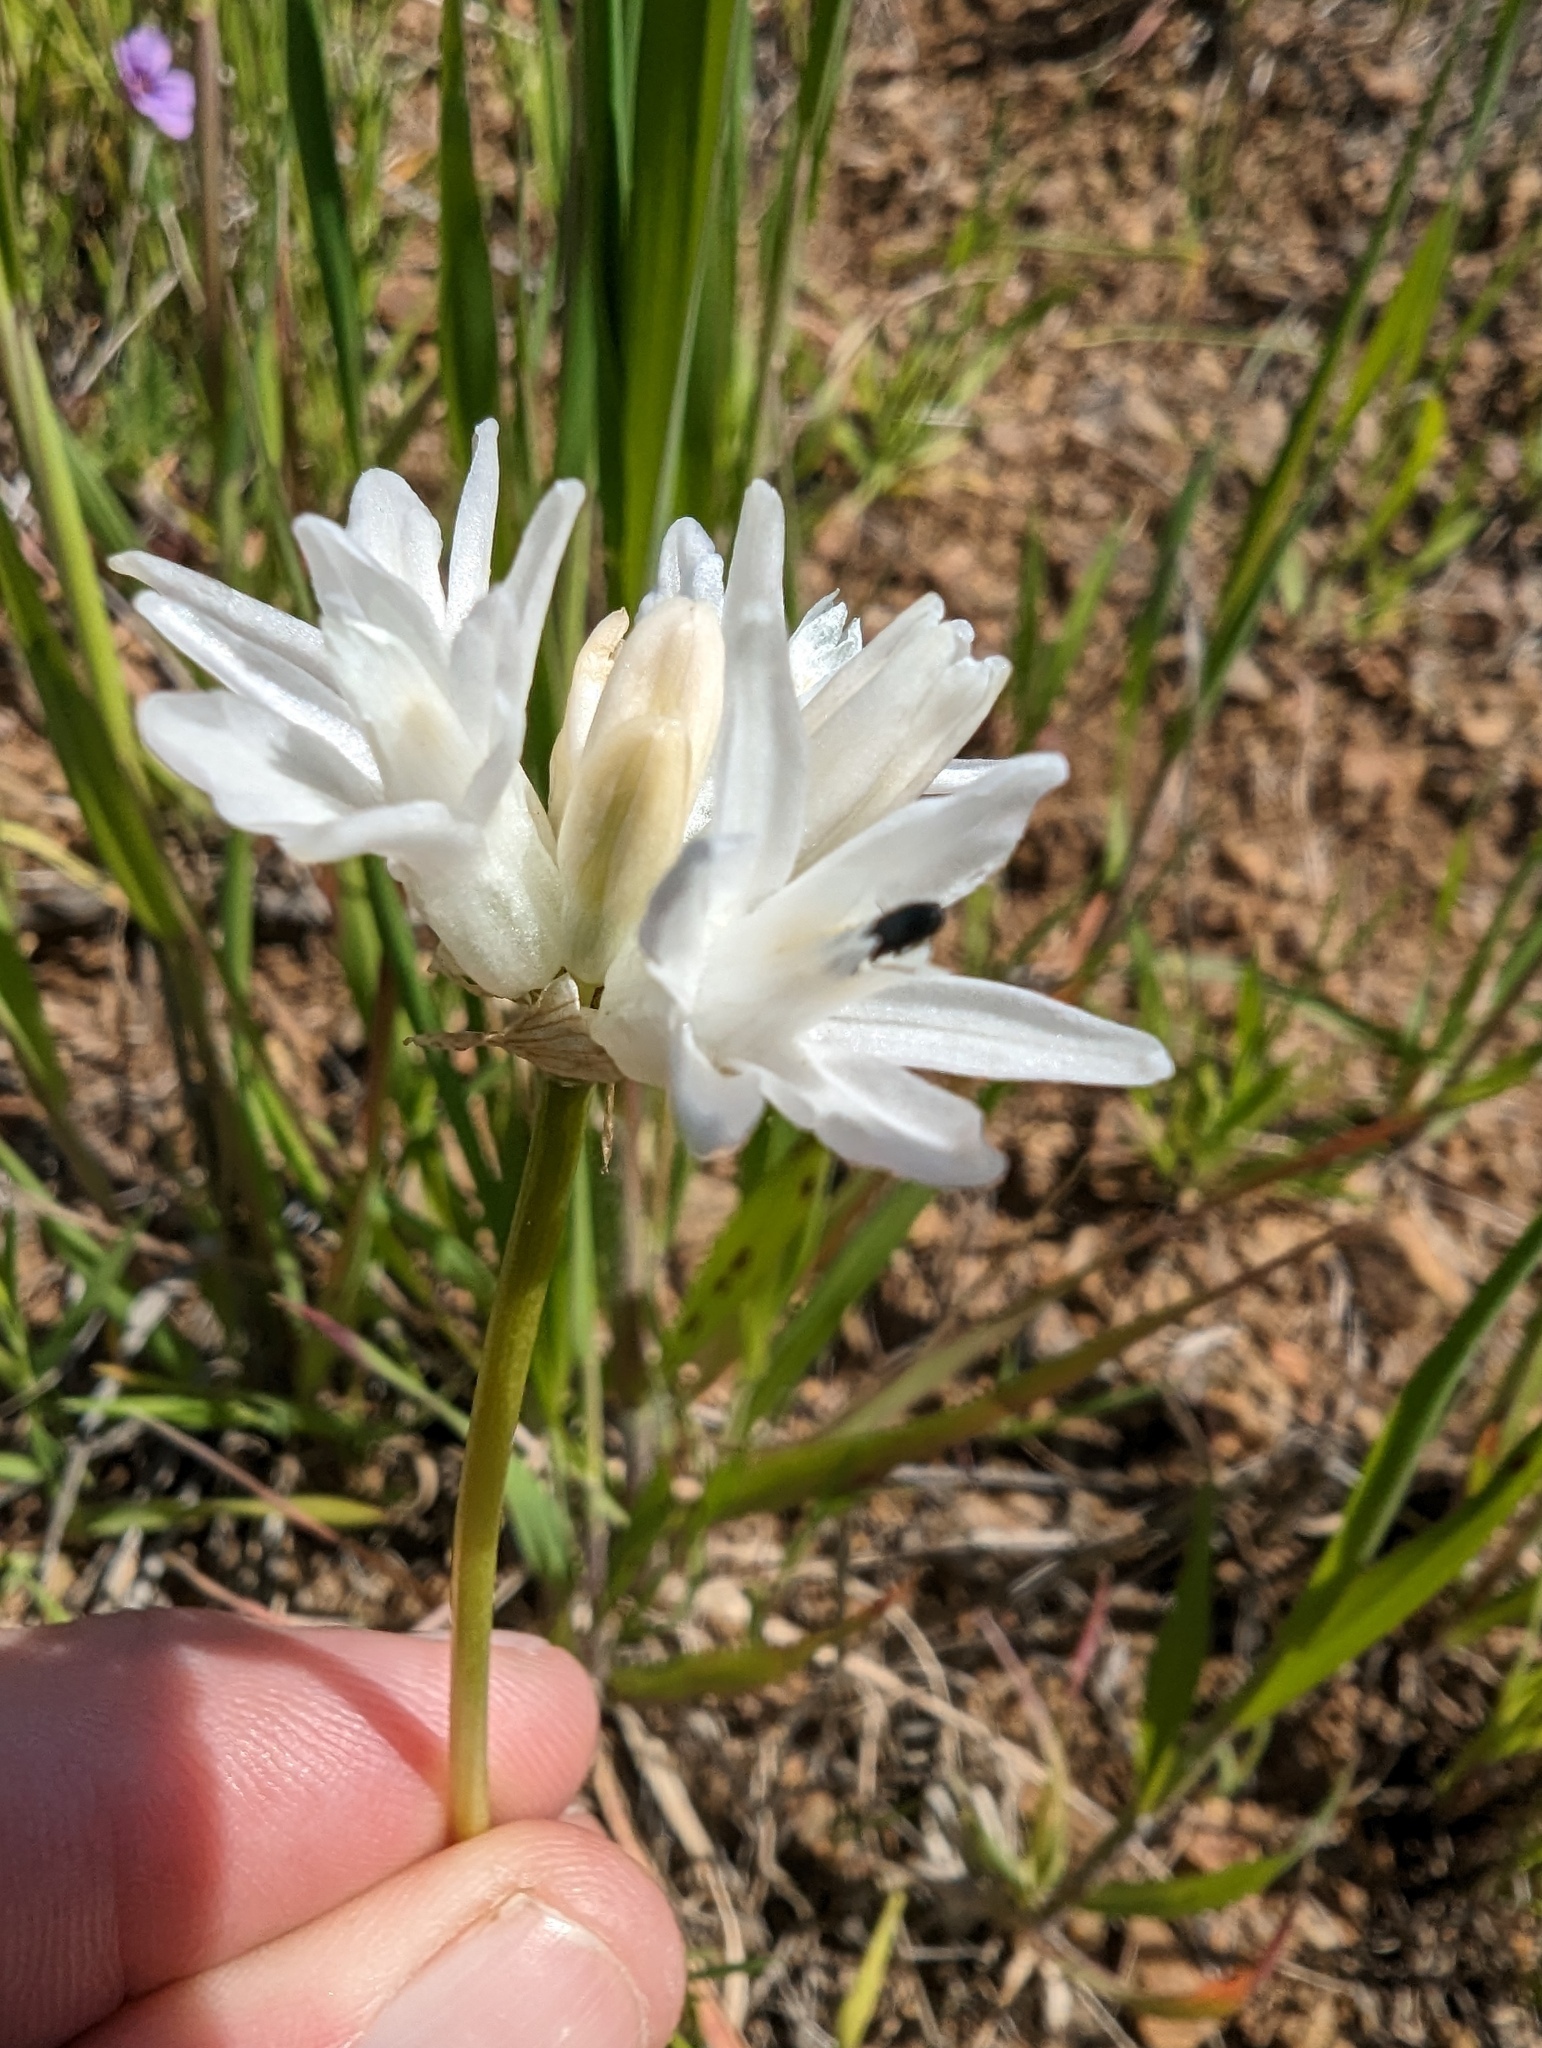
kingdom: Plantae
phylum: Tracheophyta
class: Liliopsida
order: Asparagales
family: Asparagaceae
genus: Dipterostemon
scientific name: Dipterostemon capitatus
